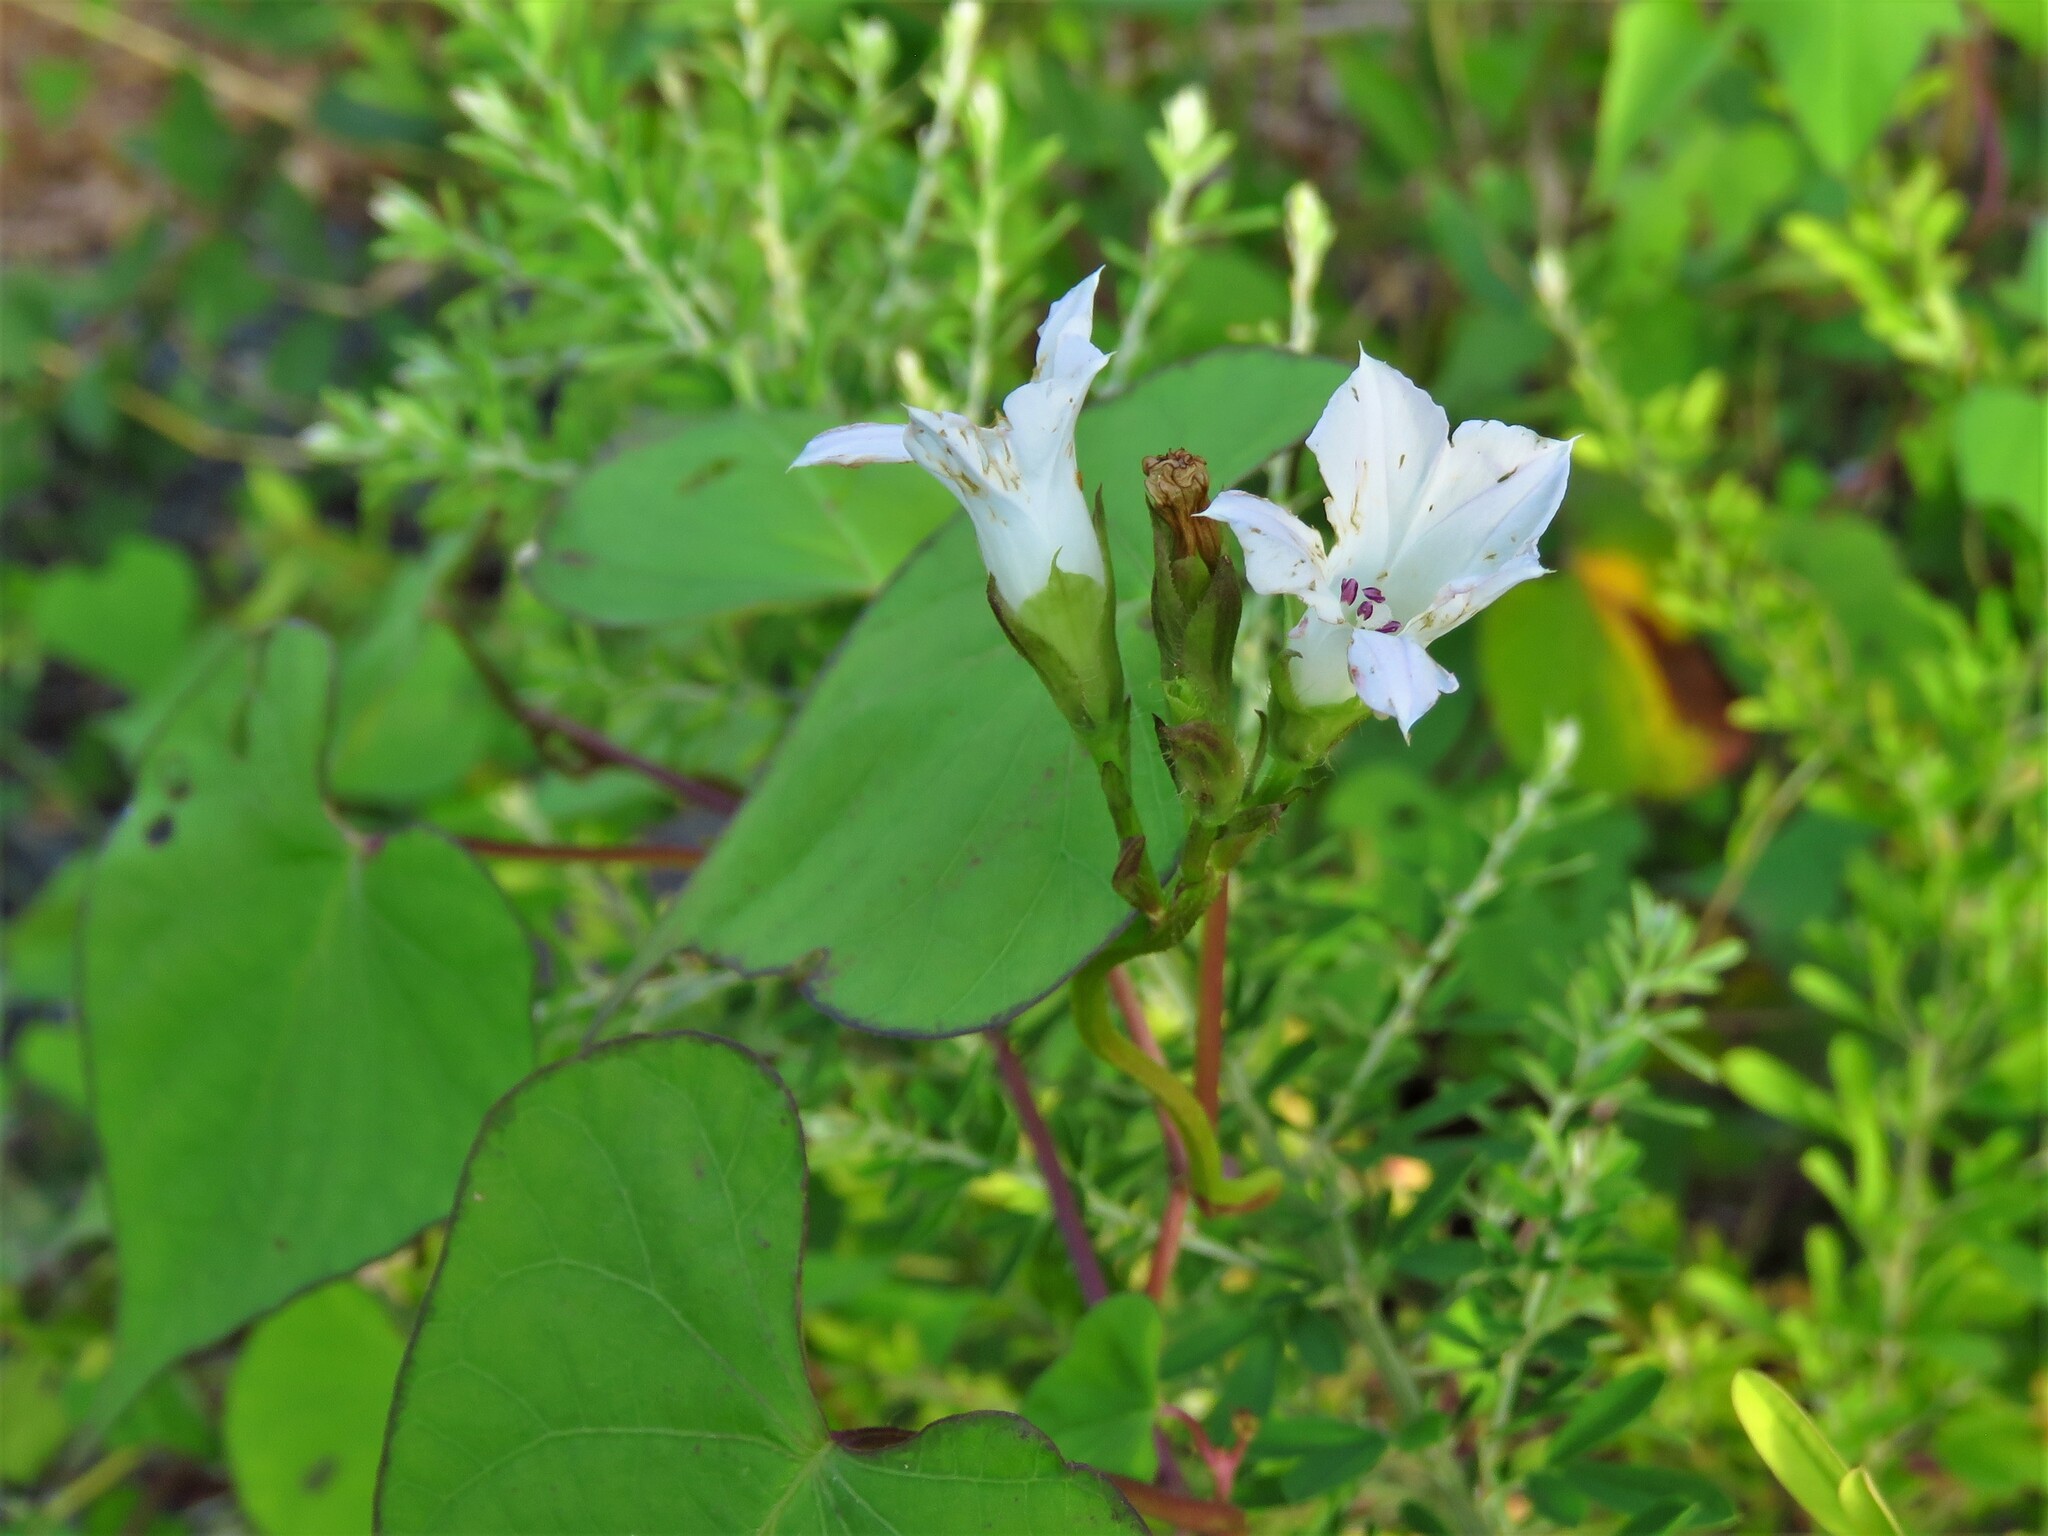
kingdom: Plantae
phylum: Tracheophyta
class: Magnoliopsida
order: Solanales
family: Convolvulaceae
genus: Ipomoea
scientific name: Ipomoea lacunosa
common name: White morning-glory
